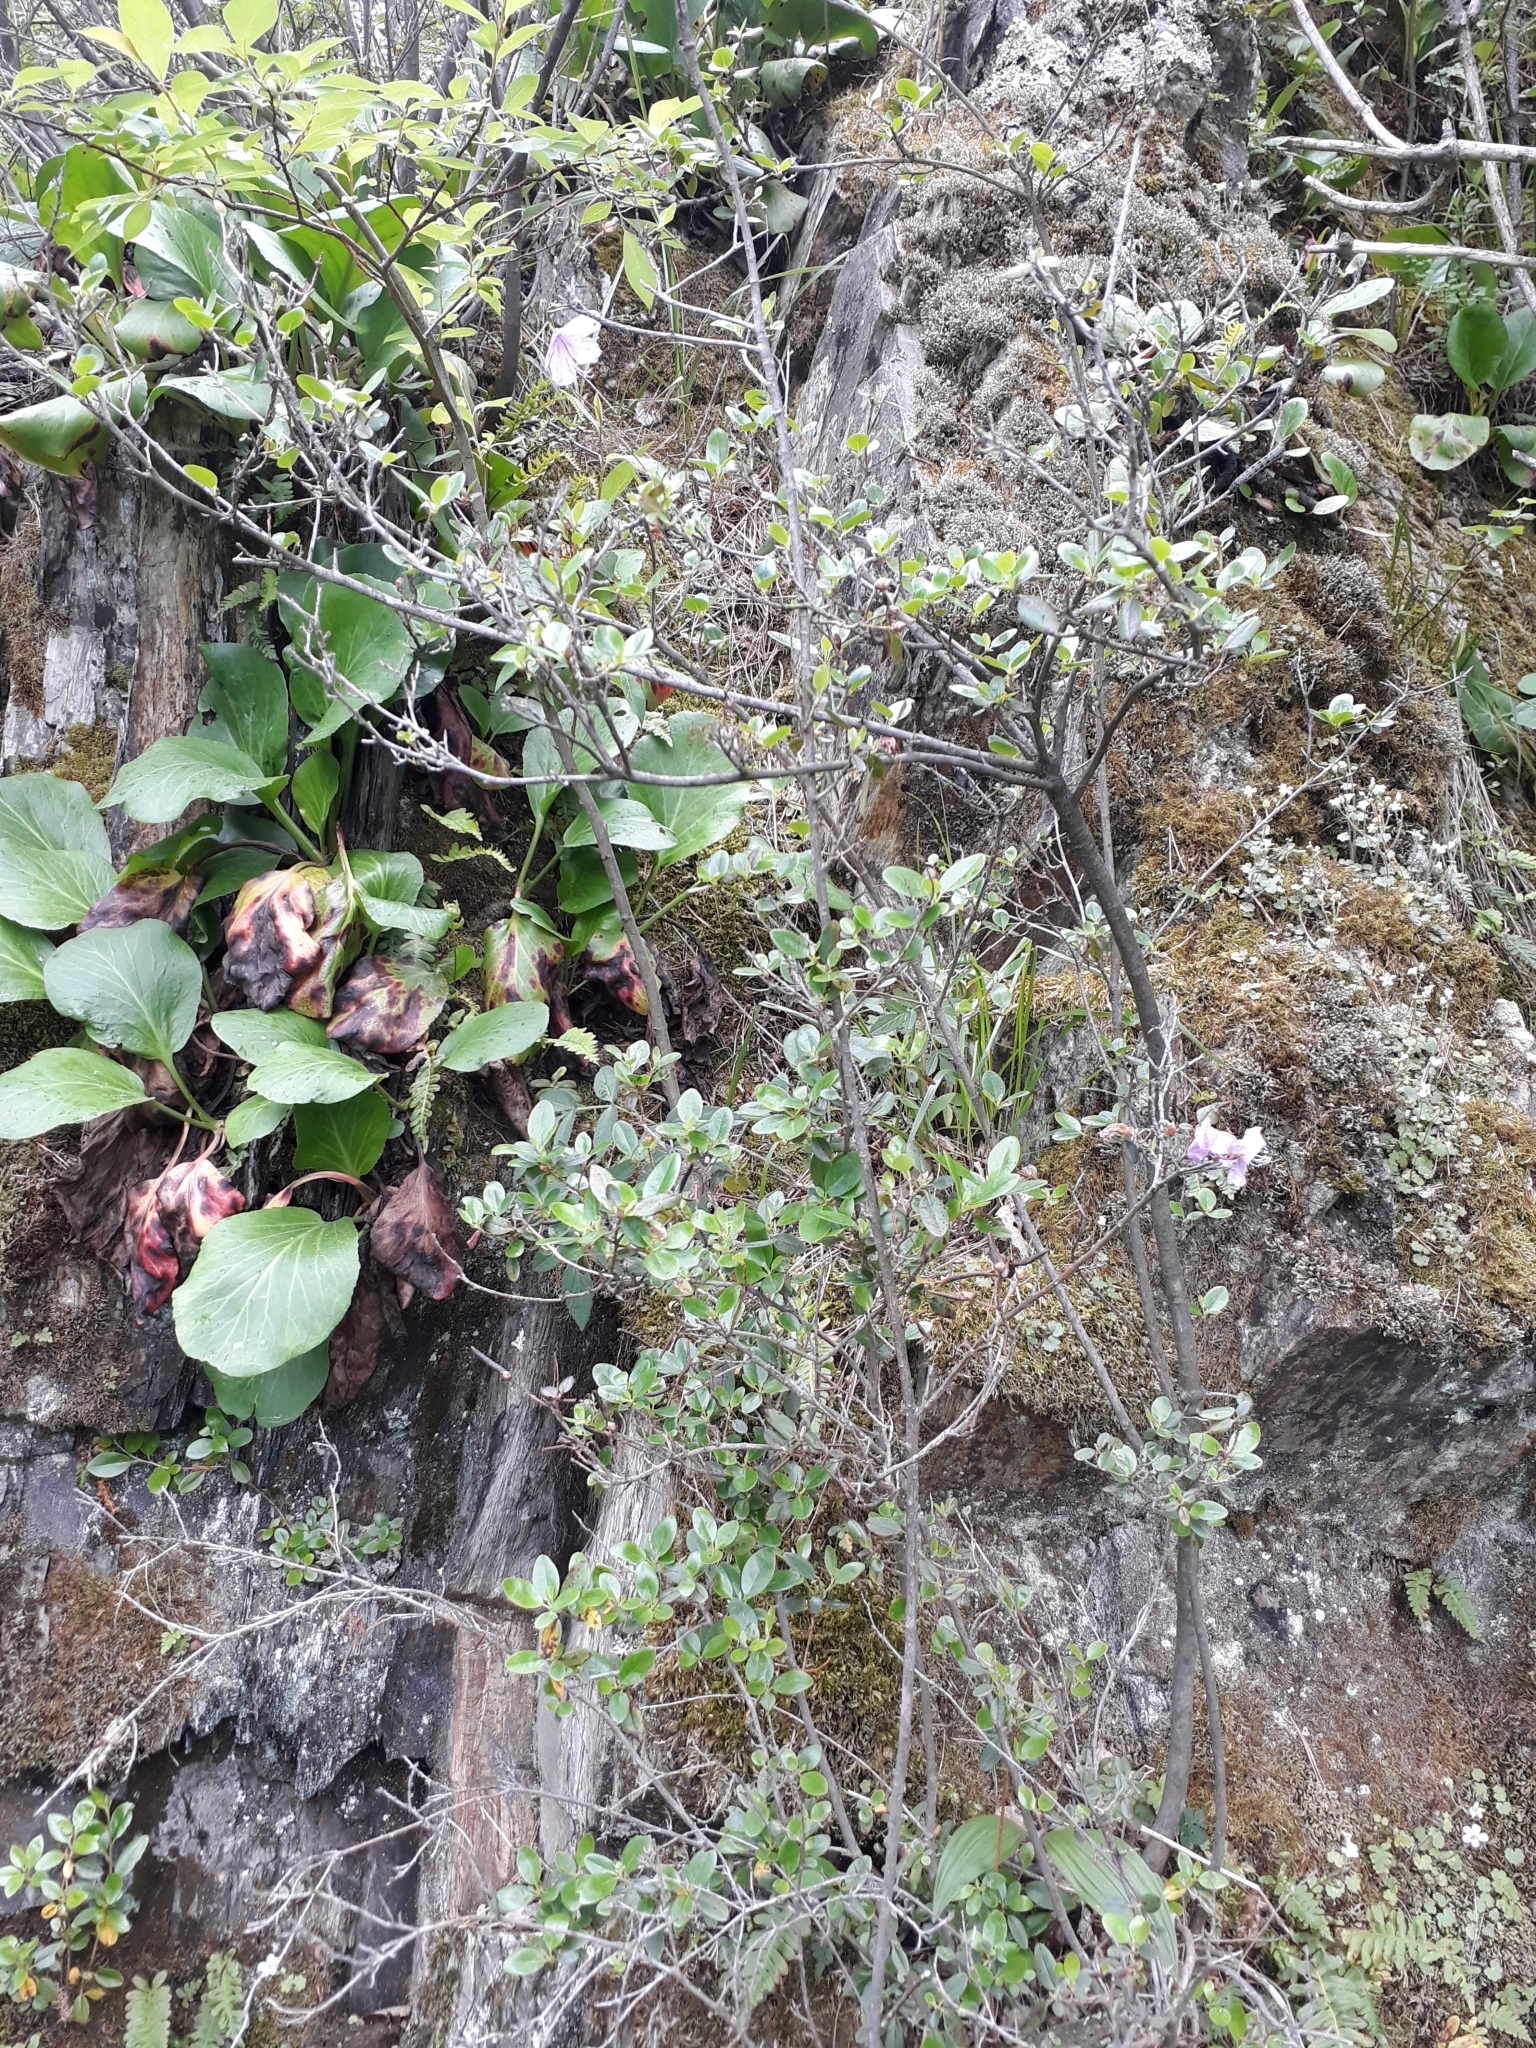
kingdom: Plantae
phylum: Tracheophyta
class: Magnoliopsida
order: Ericales
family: Ericaceae
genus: Rhododendron
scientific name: Rhododendron dauricum
